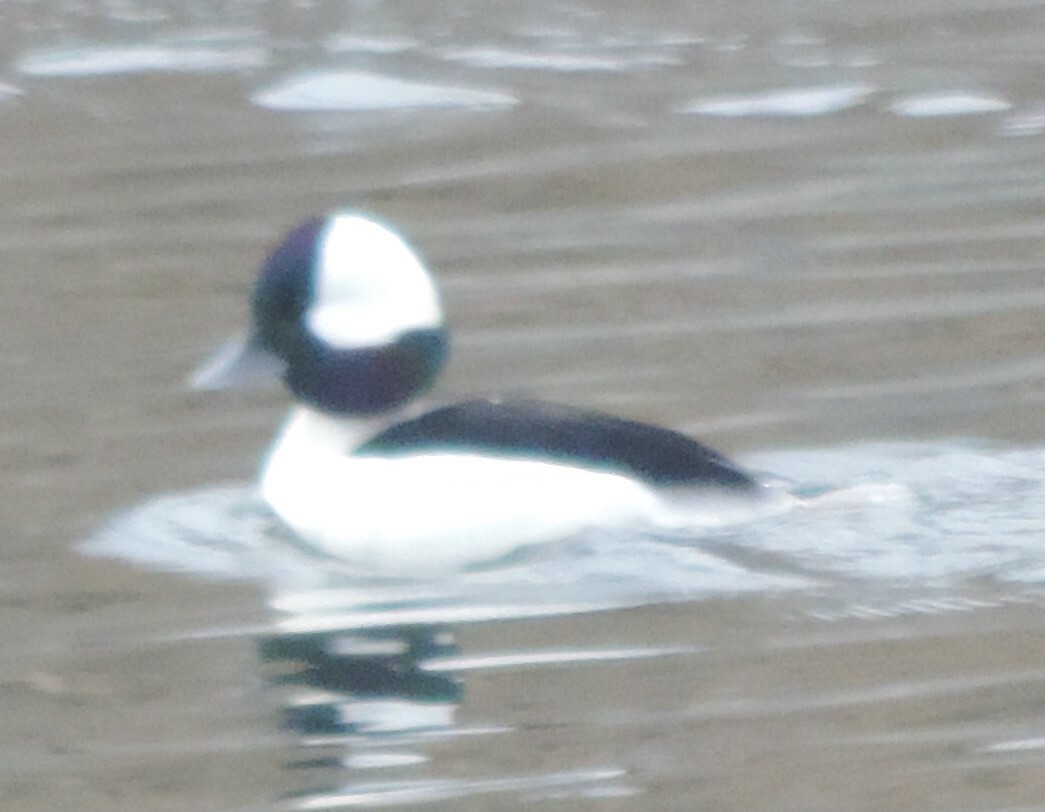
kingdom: Animalia
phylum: Chordata
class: Aves
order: Anseriformes
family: Anatidae
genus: Bucephala
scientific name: Bucephala albeola
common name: Bufflehead
